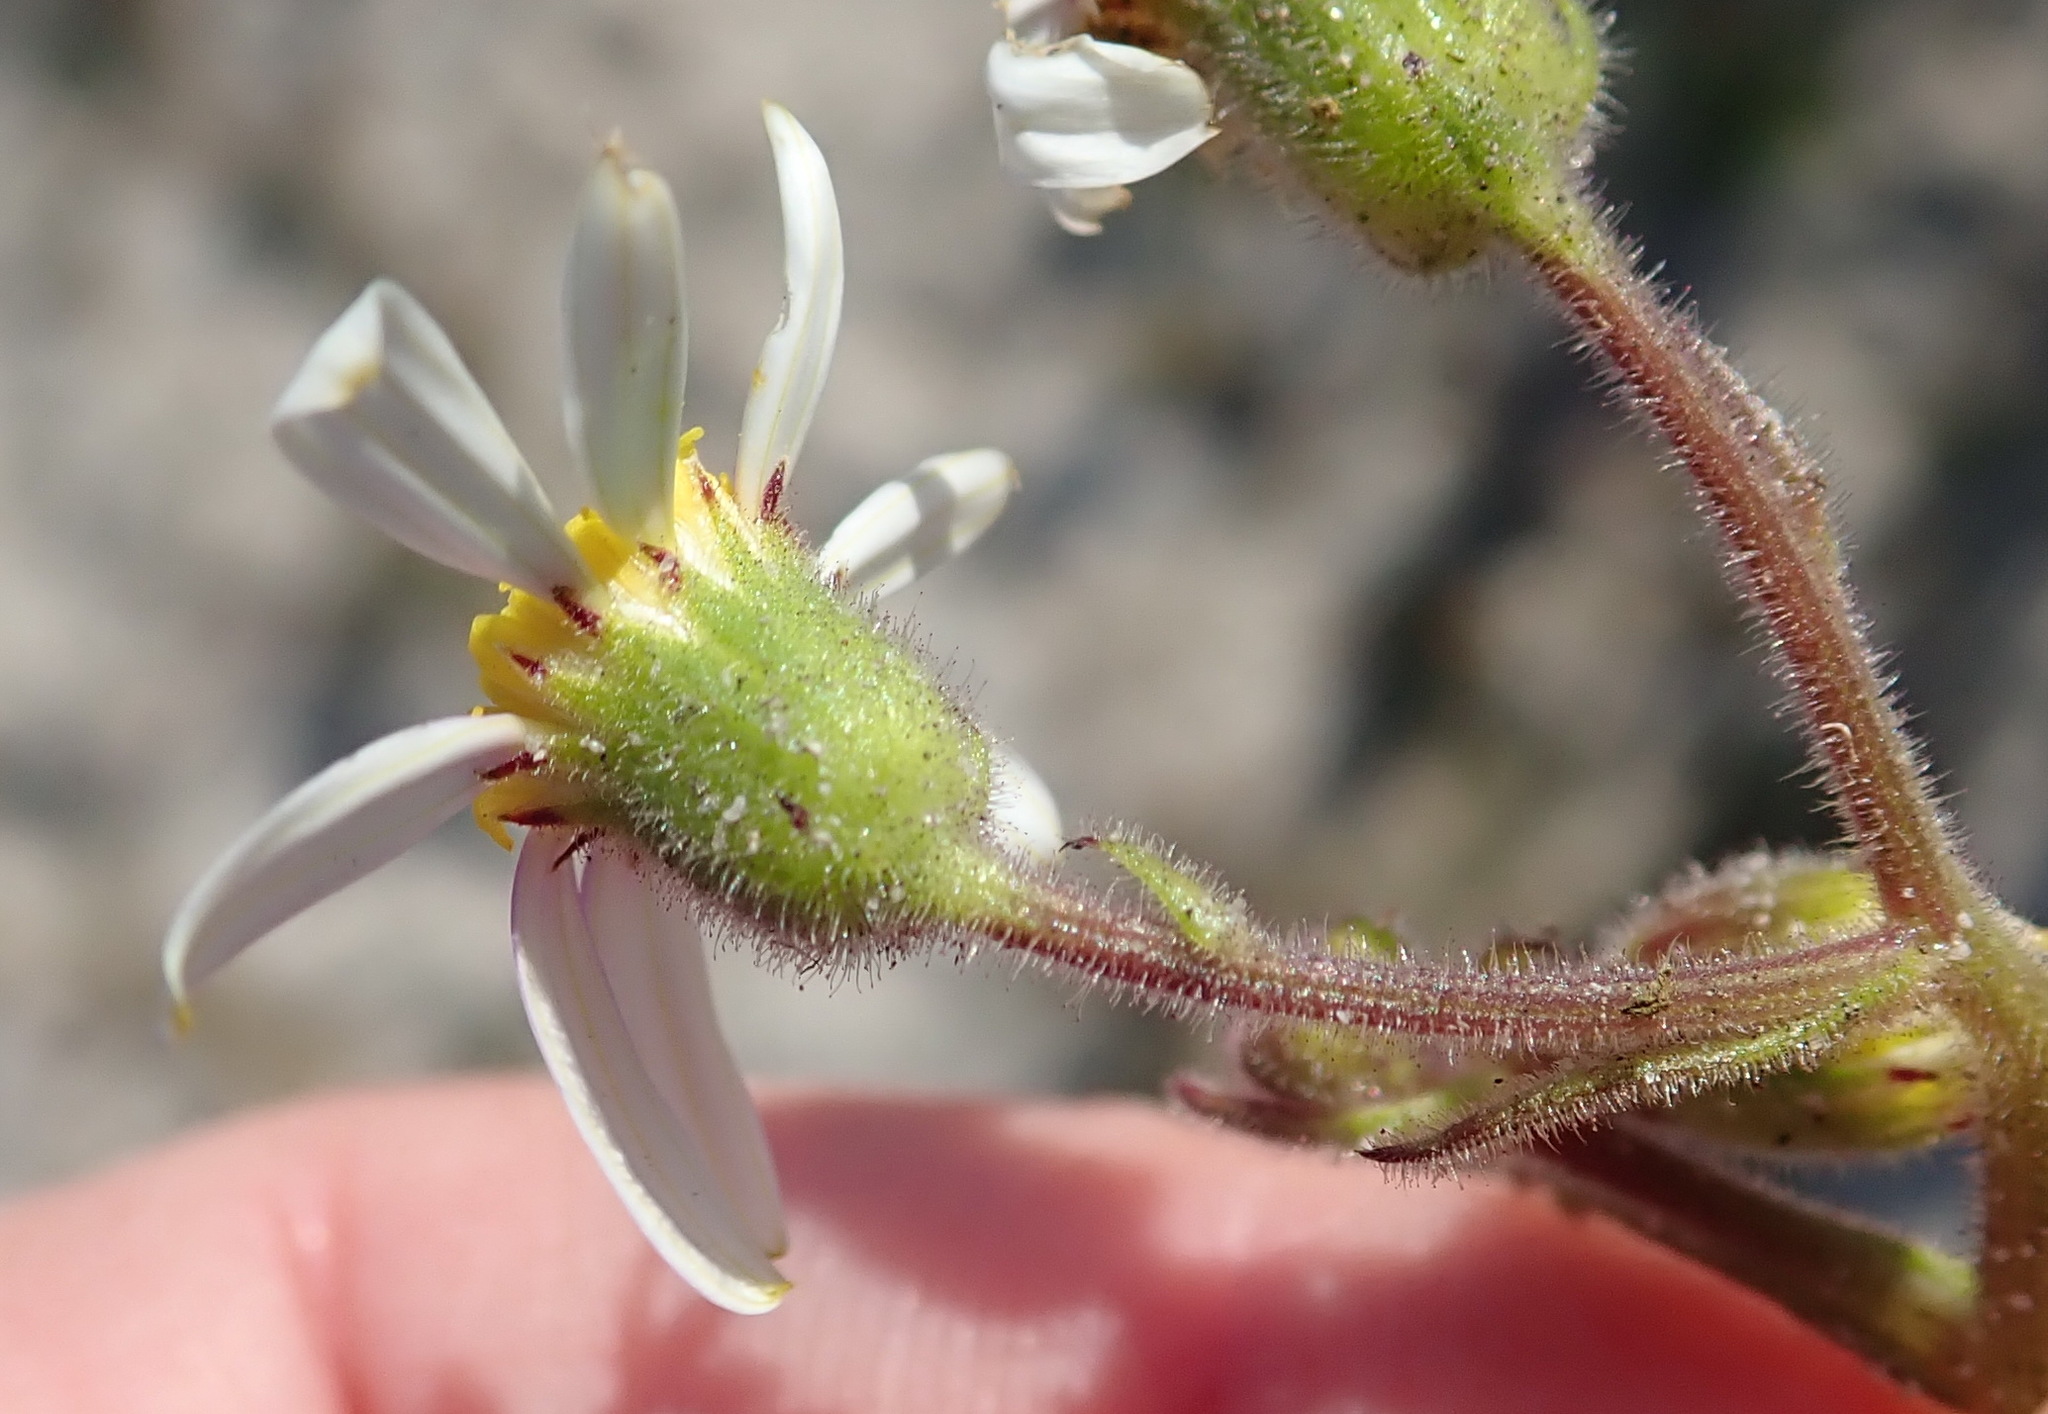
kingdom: Plantae
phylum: Tracheophyta
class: Magnoliopsida
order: Asterales
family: Asteraceae
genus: Senecio
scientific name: Senecio arenarius
